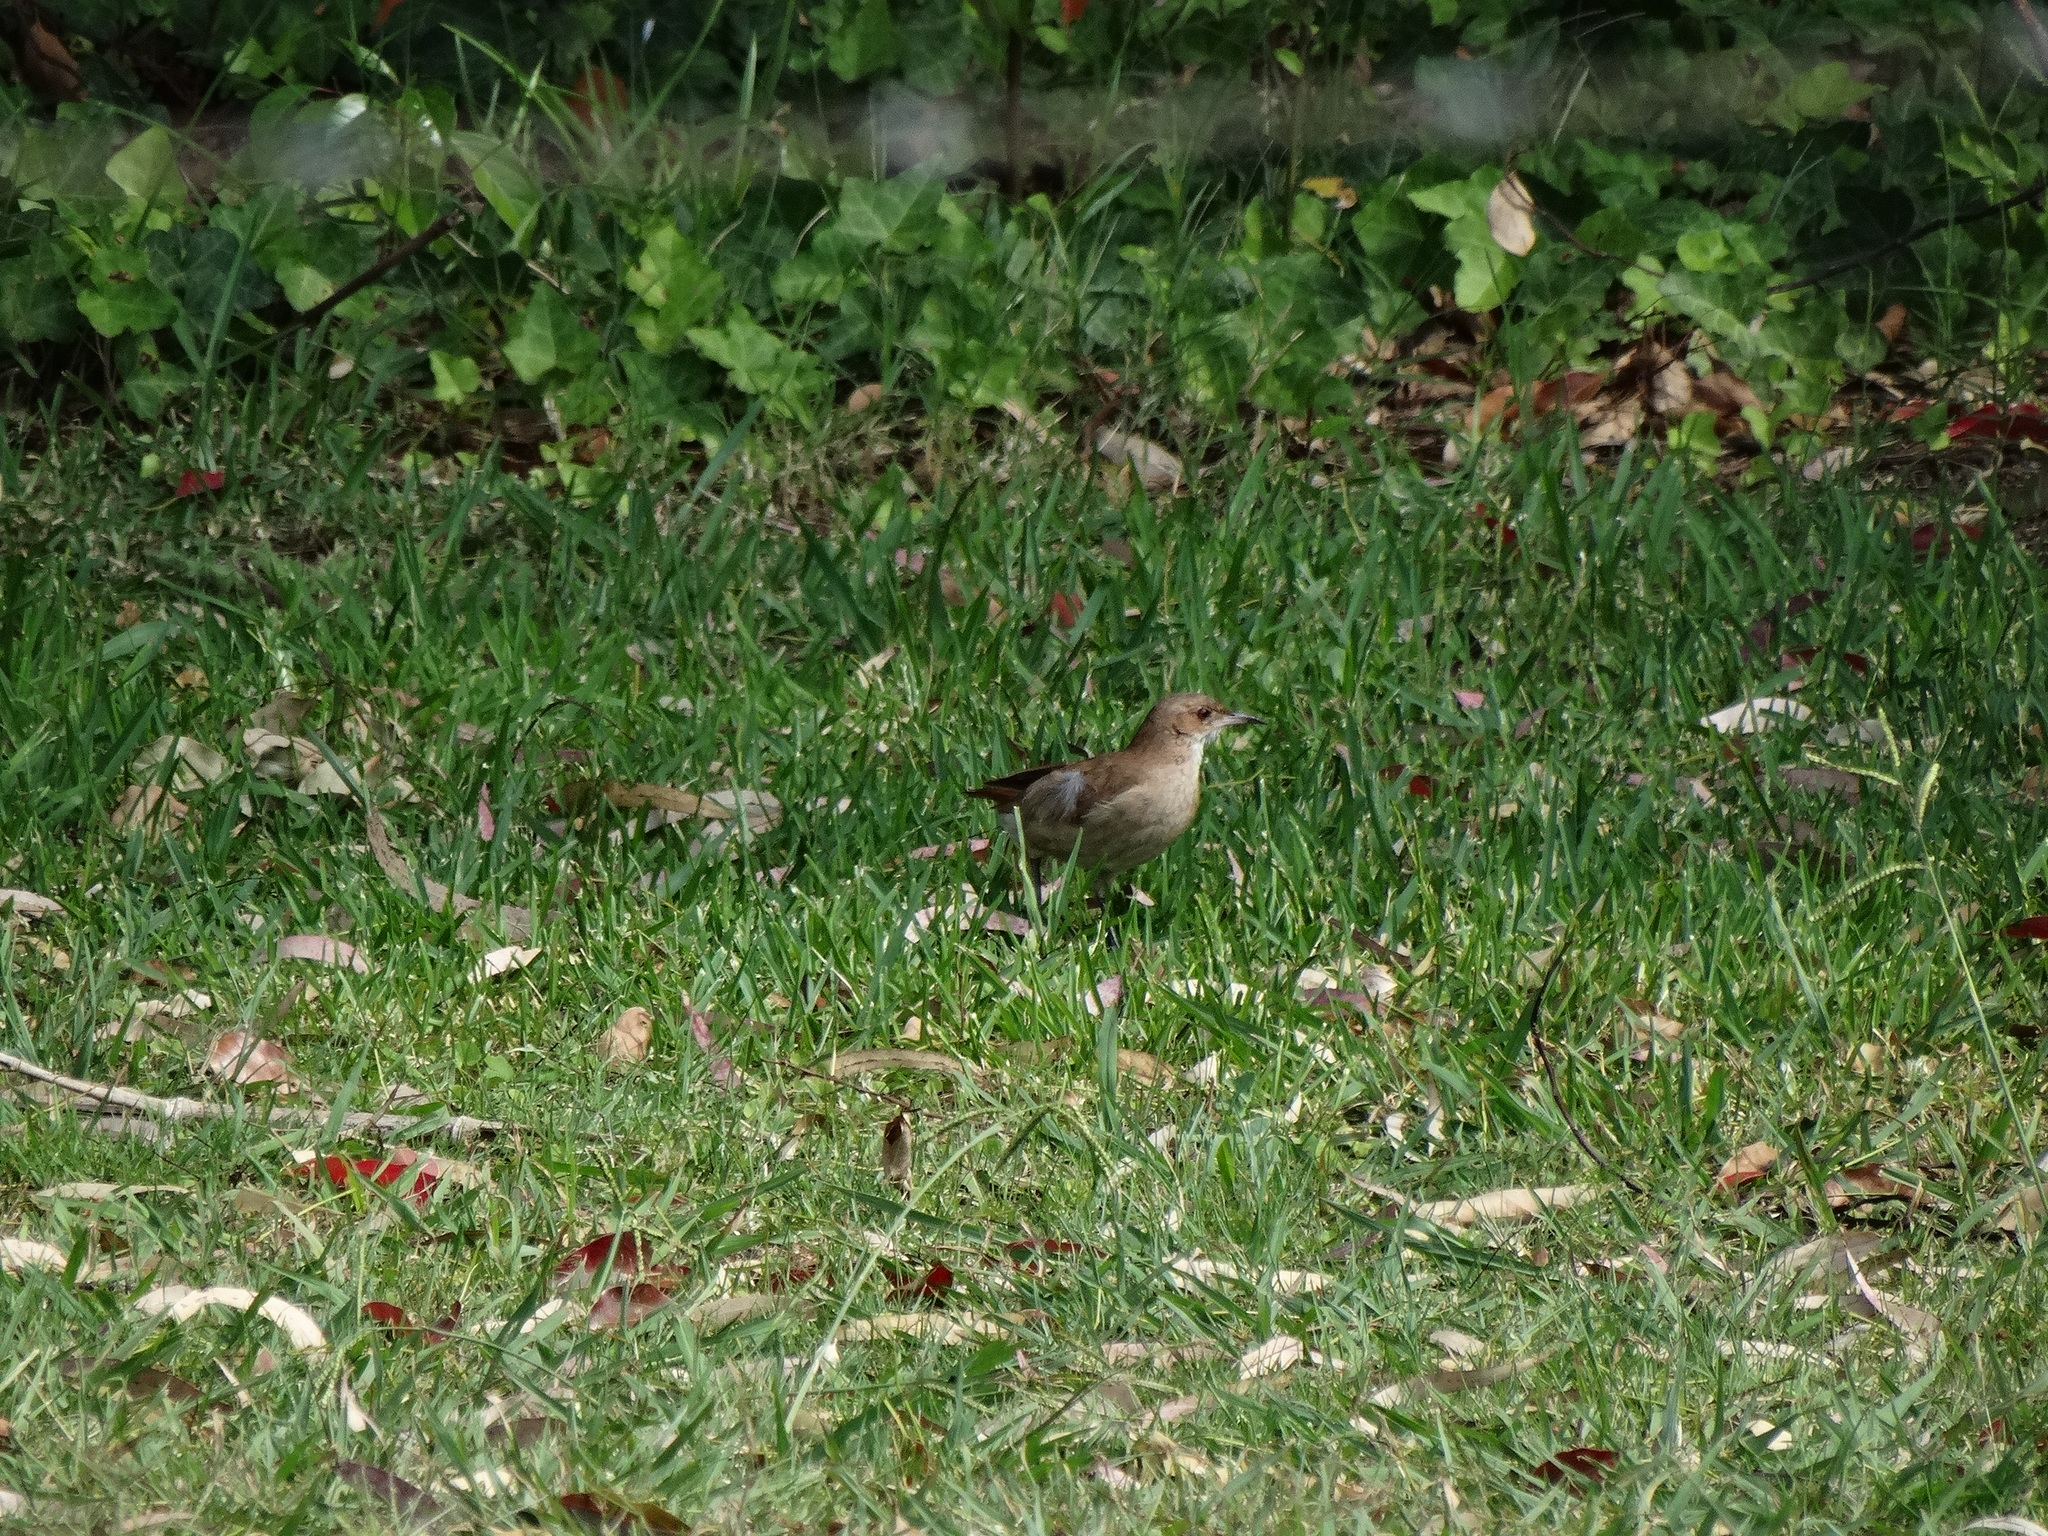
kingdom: Animalia
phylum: Chordata
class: Aves
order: Passeriformes
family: Furnariidae
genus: Furnarius
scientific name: Furnarius rufus
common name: Rufous hornero
